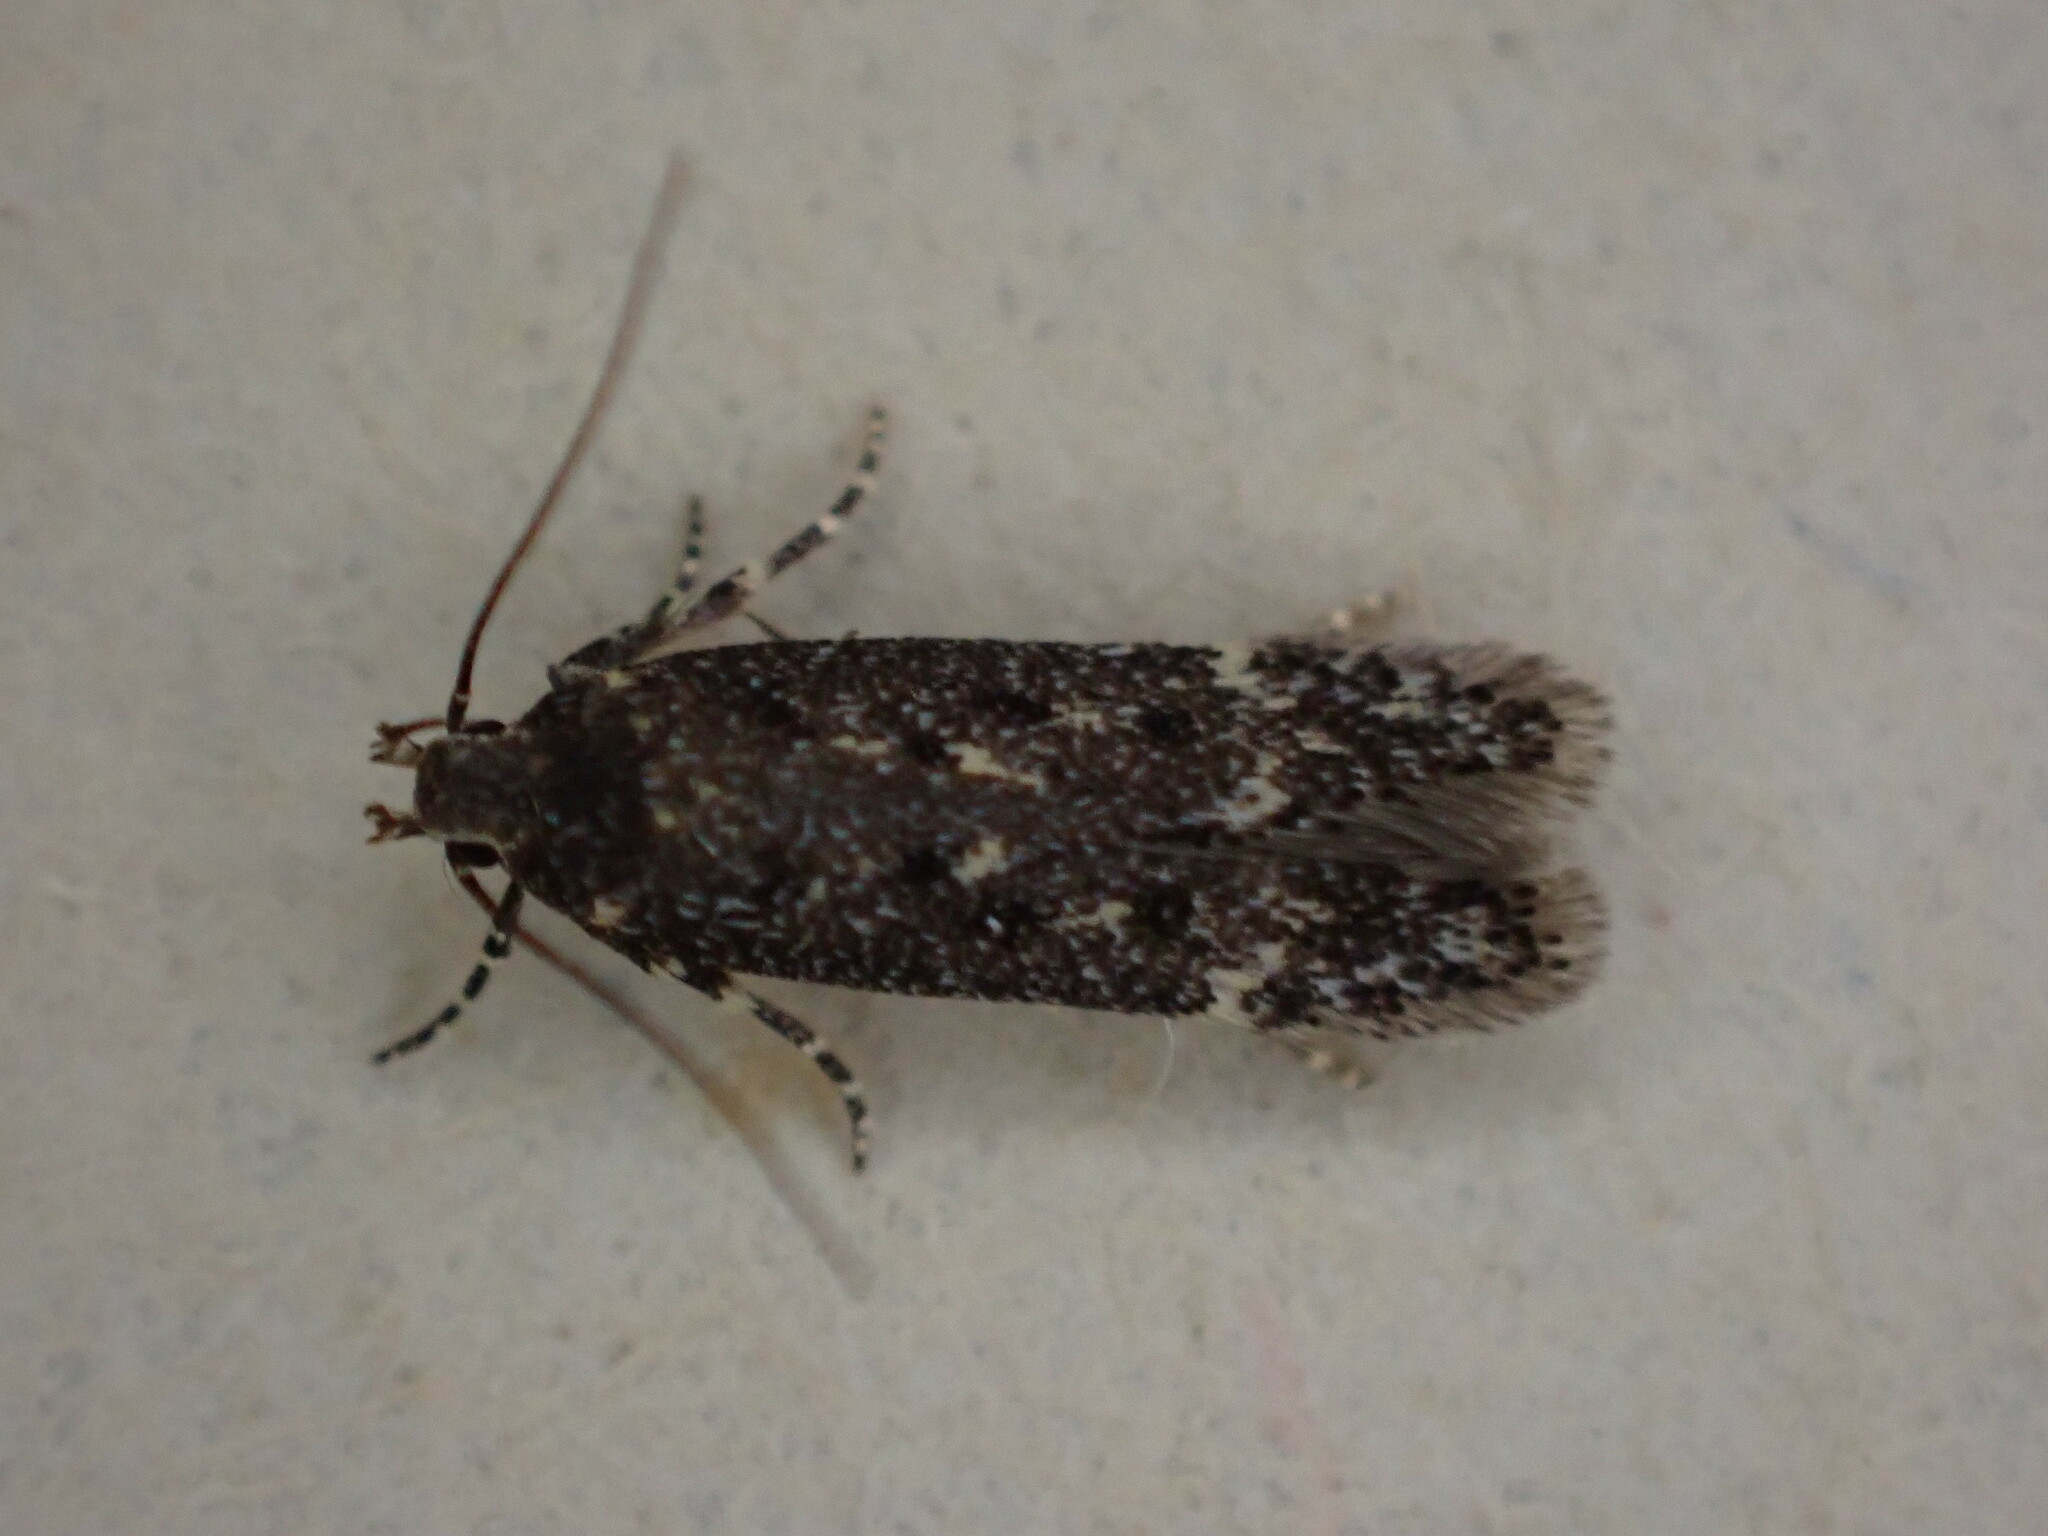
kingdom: Animalia
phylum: Arthropoda
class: Insecta
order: Lepidoptera
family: Gelechiidae
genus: Bryotropha
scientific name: Bryotropha affinis
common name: Dark groundling
